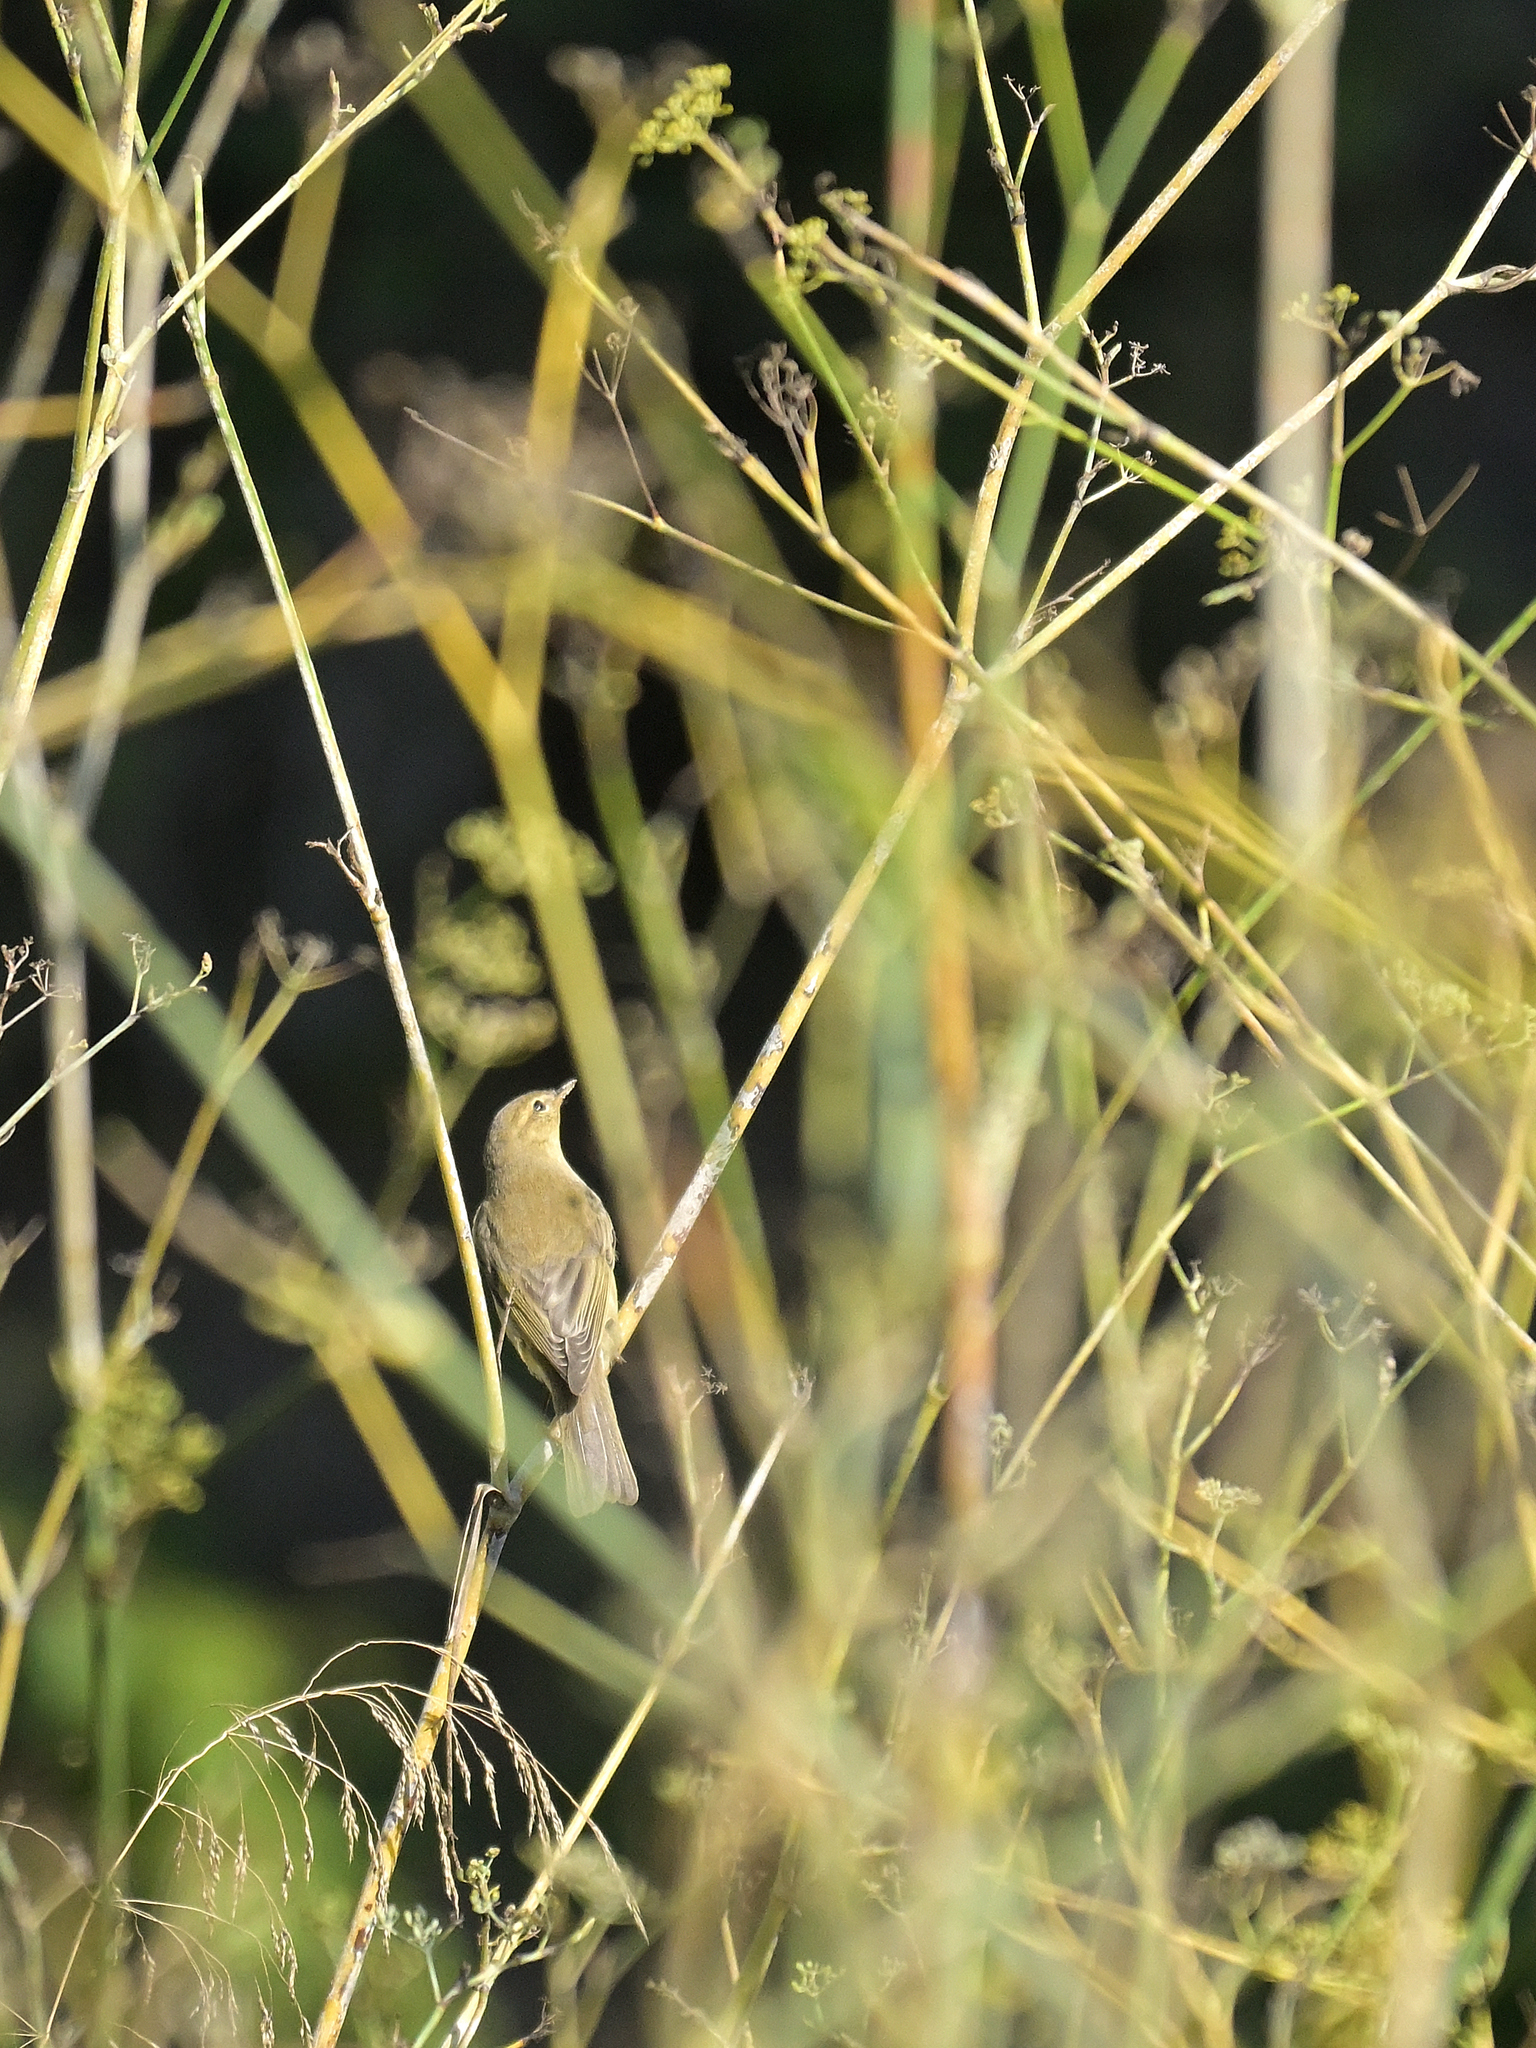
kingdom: Animalia
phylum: Chordata
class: Aves
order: Passeriformes
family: Phylloscopidae
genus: Phylloscopus
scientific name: Phylloscopus trochilus
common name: Willow warbler
